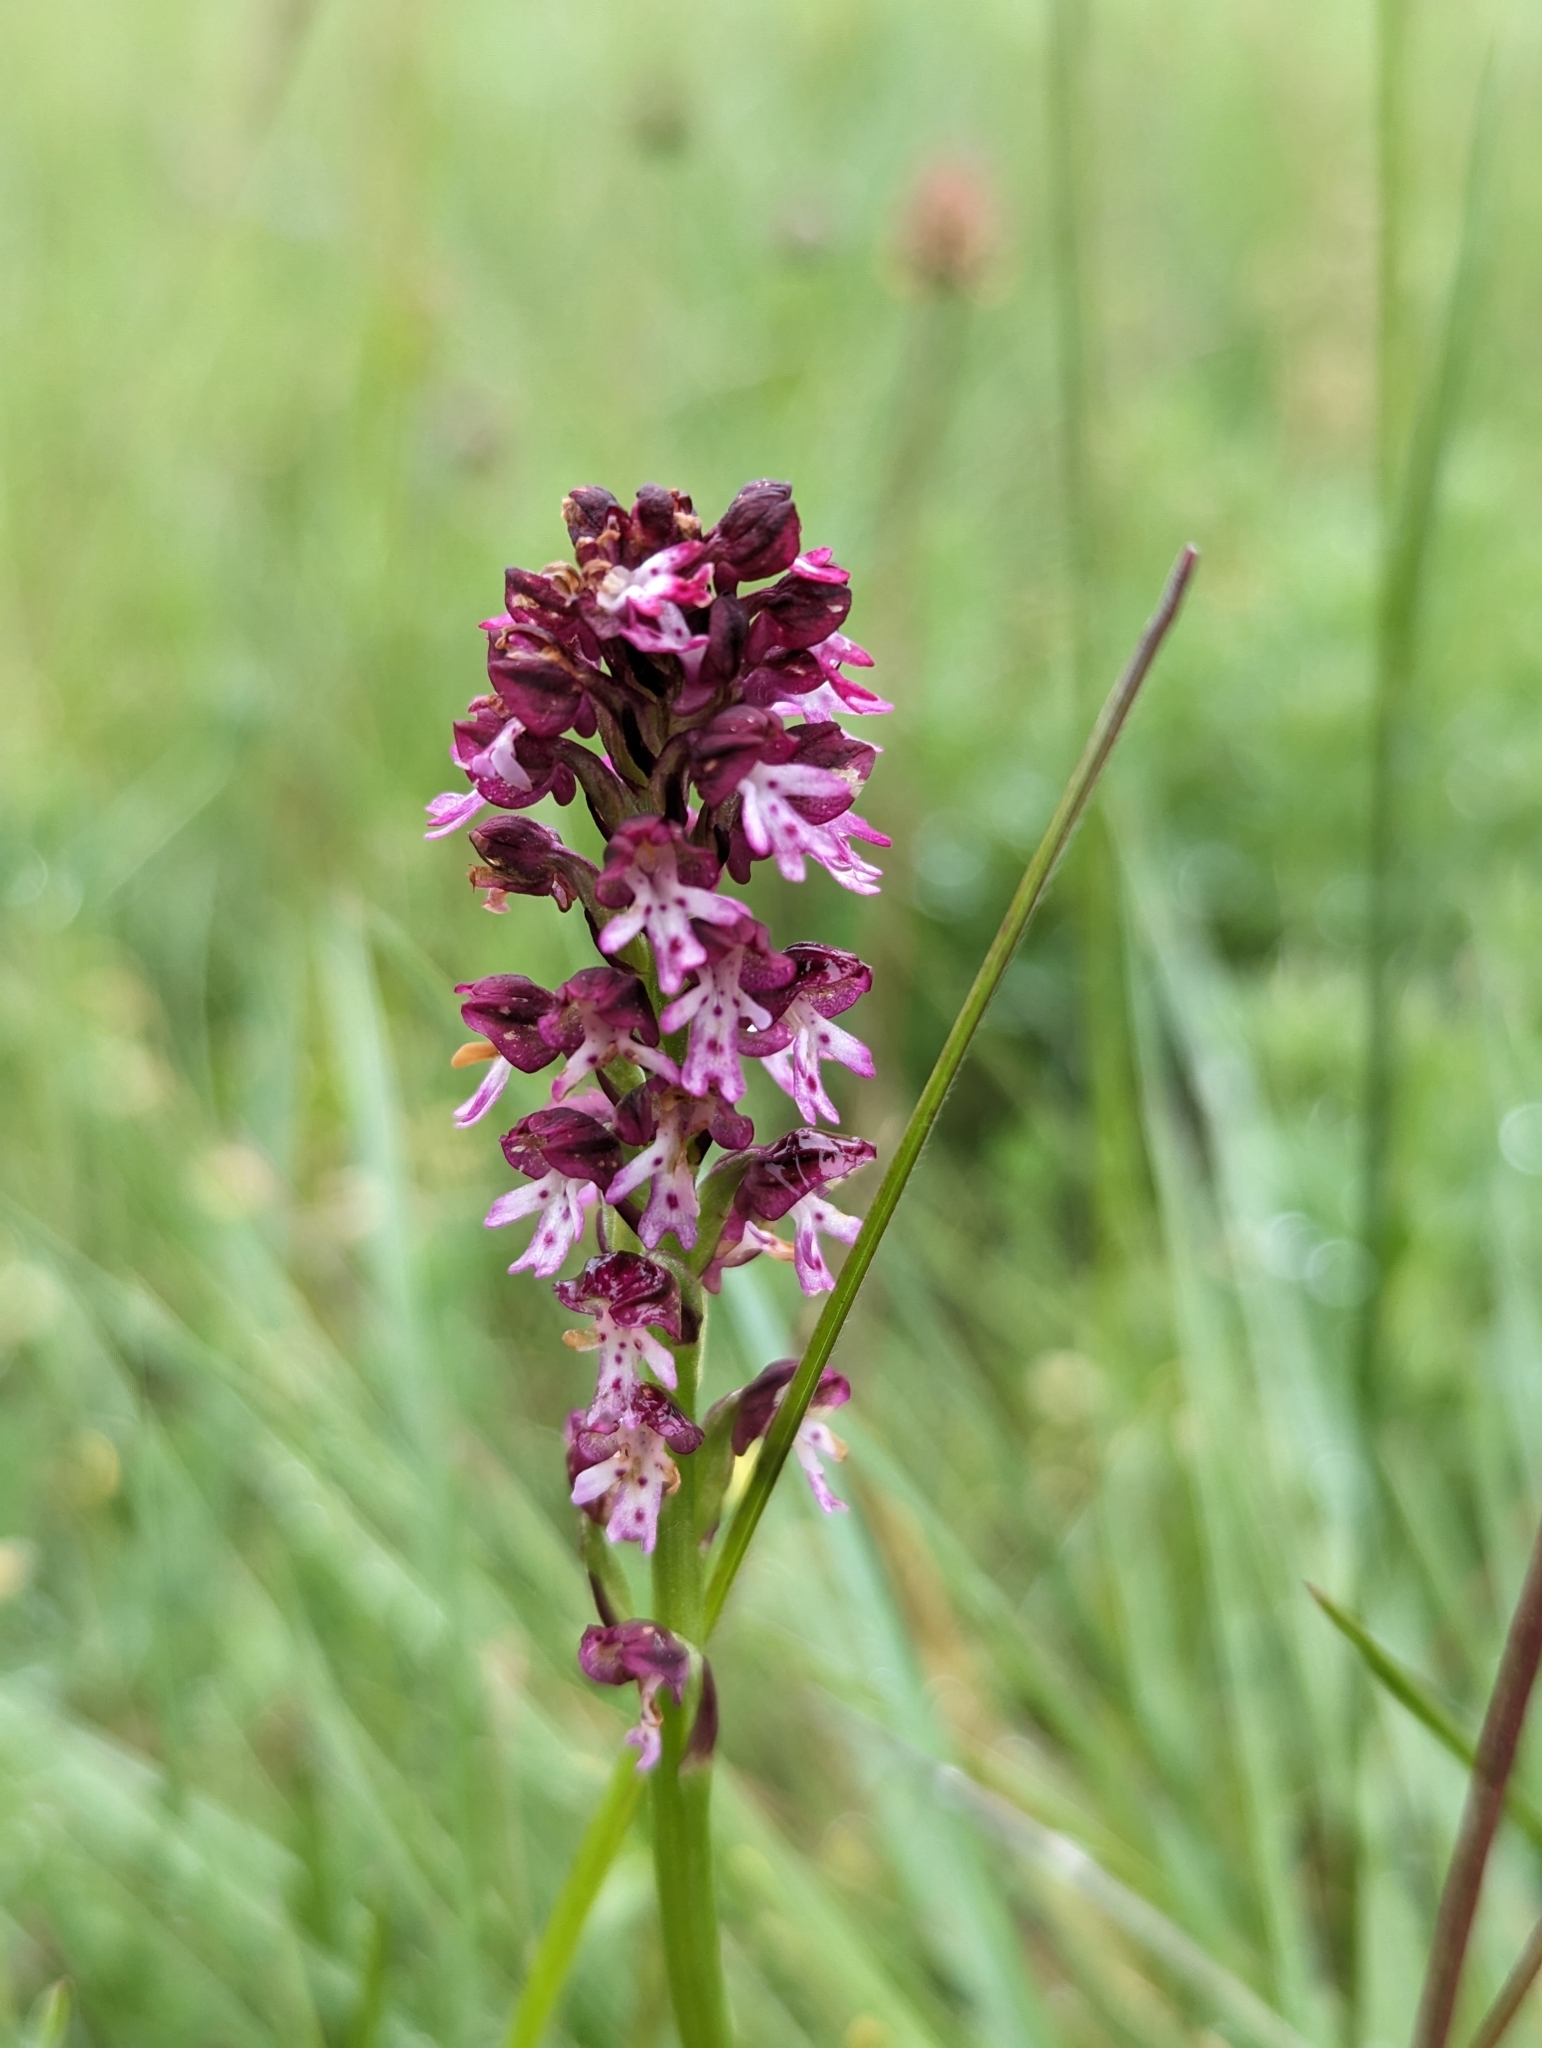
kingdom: Plantae
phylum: Tracheophyta
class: Liliopsida
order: Asparagales
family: Orchidaceae
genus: Neotinea
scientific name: Neotinea ustulata
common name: Burnt orchid
